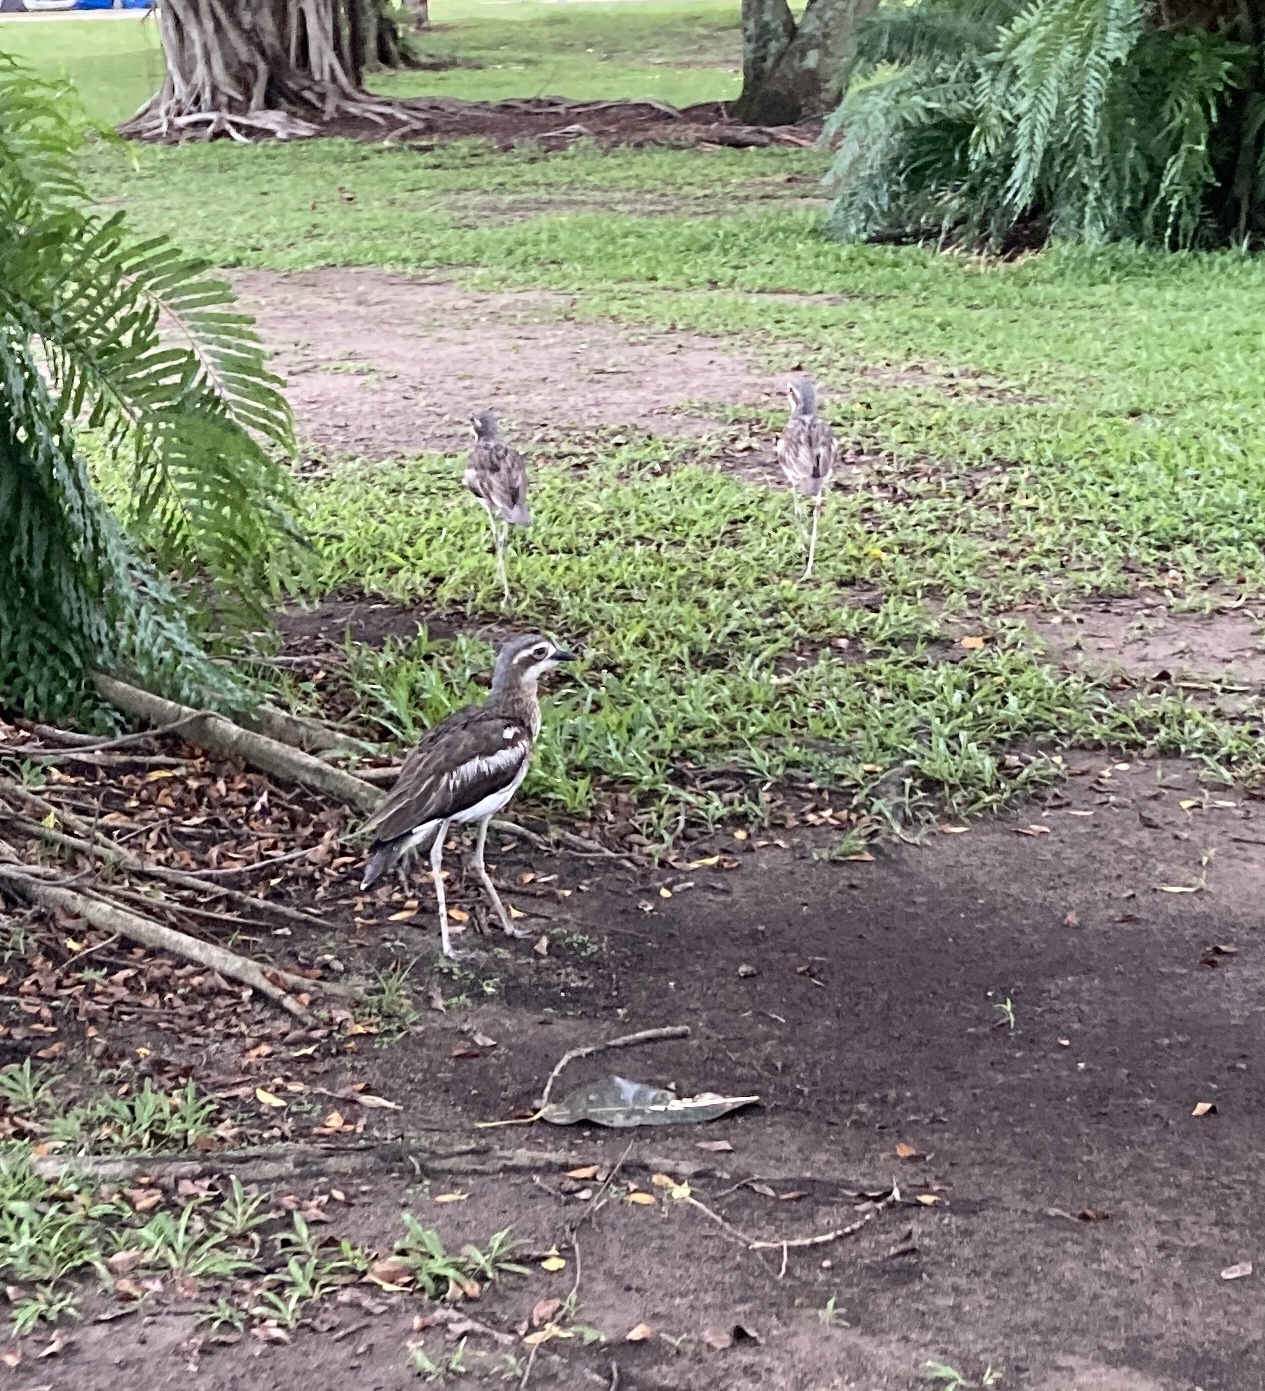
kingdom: Animalia
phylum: Chordata
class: Aves
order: Charadriiformes
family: Burhinidae
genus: Burhinus
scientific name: Burhinus grallarius
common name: Bush stone-curlew
